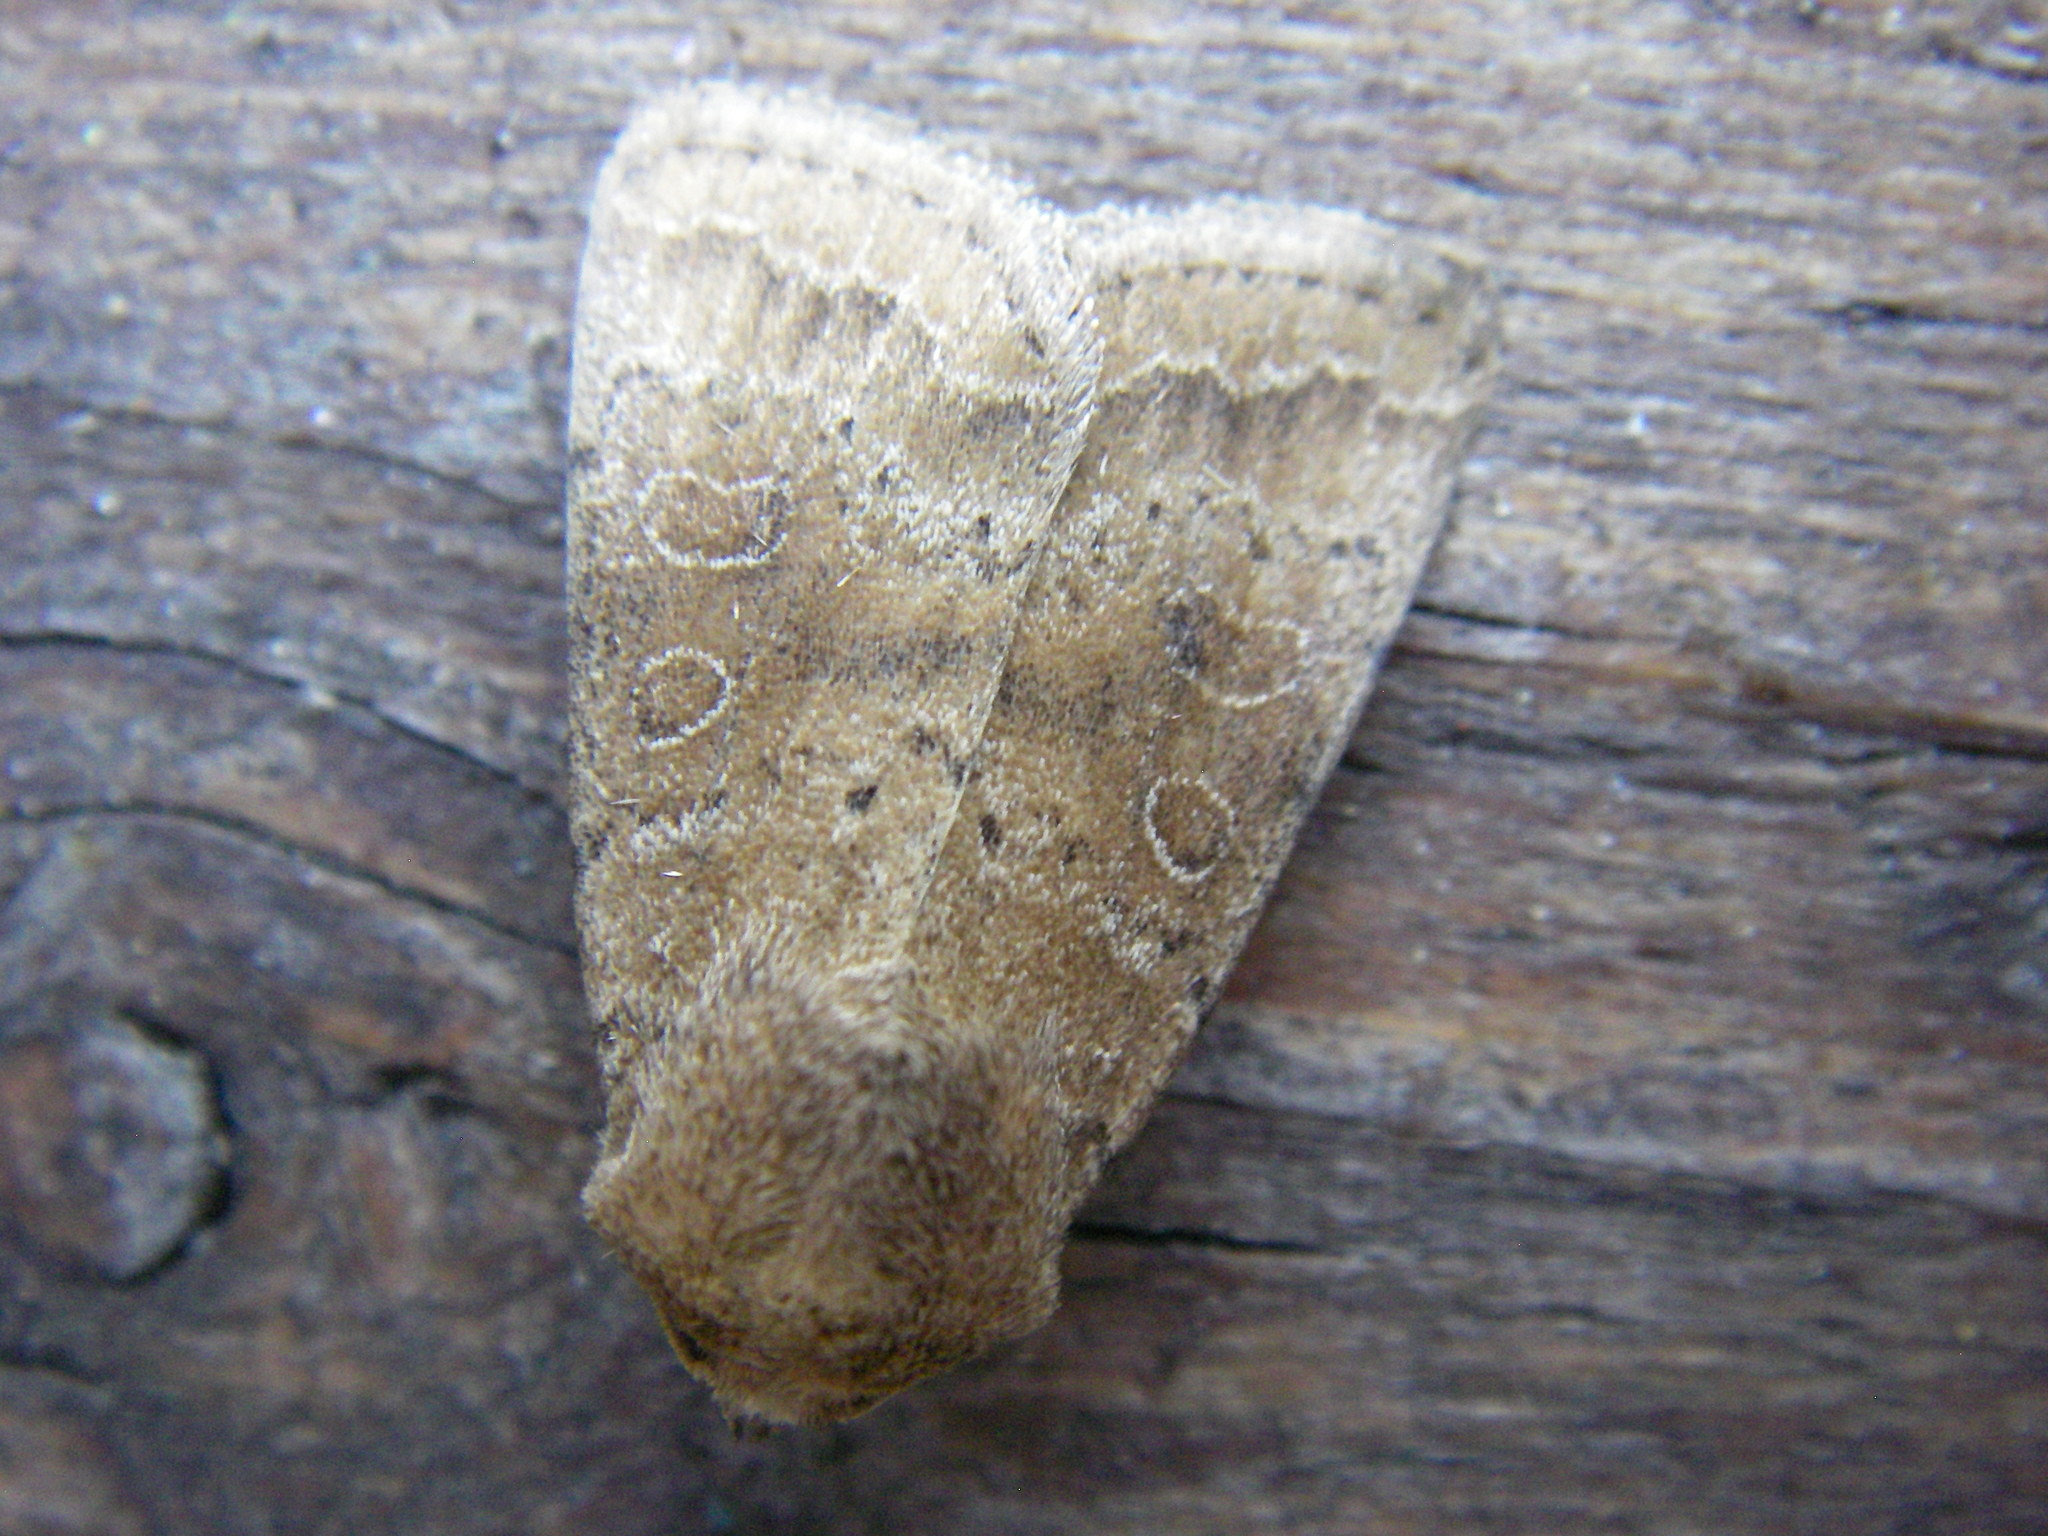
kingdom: Animalia
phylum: Arthropoda
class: Insecta
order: Lepidoptera
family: Noctuidae
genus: Hoplodrina
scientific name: Hoplodrina octogenaria
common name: Uncertain
